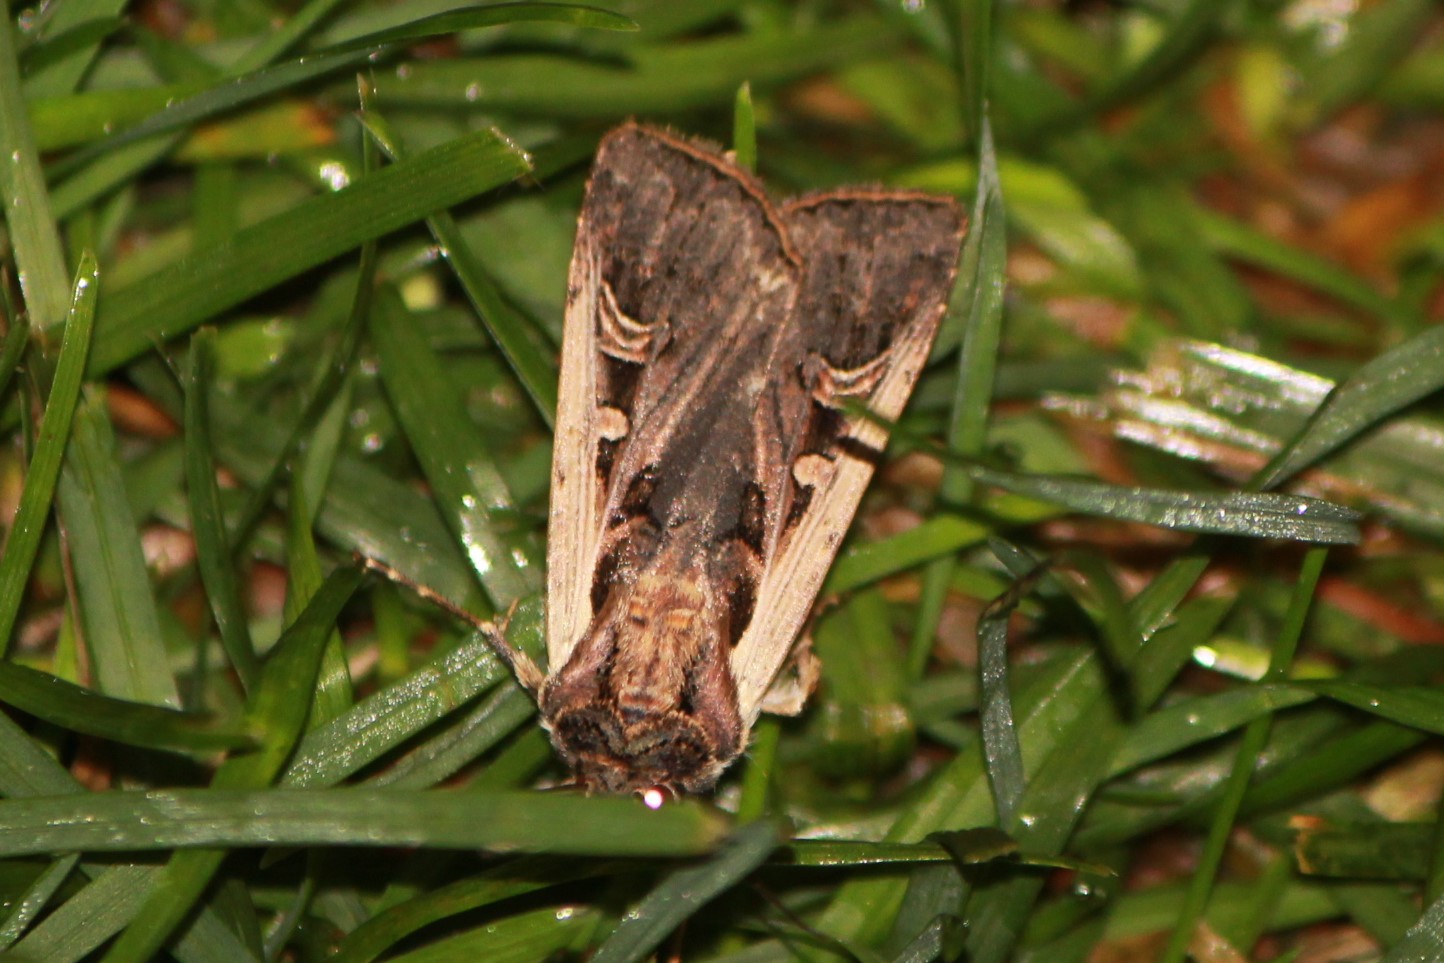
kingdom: Animalia
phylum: Arthropoda
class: Insecta
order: Lepidoptera
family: Noctuidae
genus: Striacosta
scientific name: Striacosta albicosta
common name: Western bean cutworm moth
